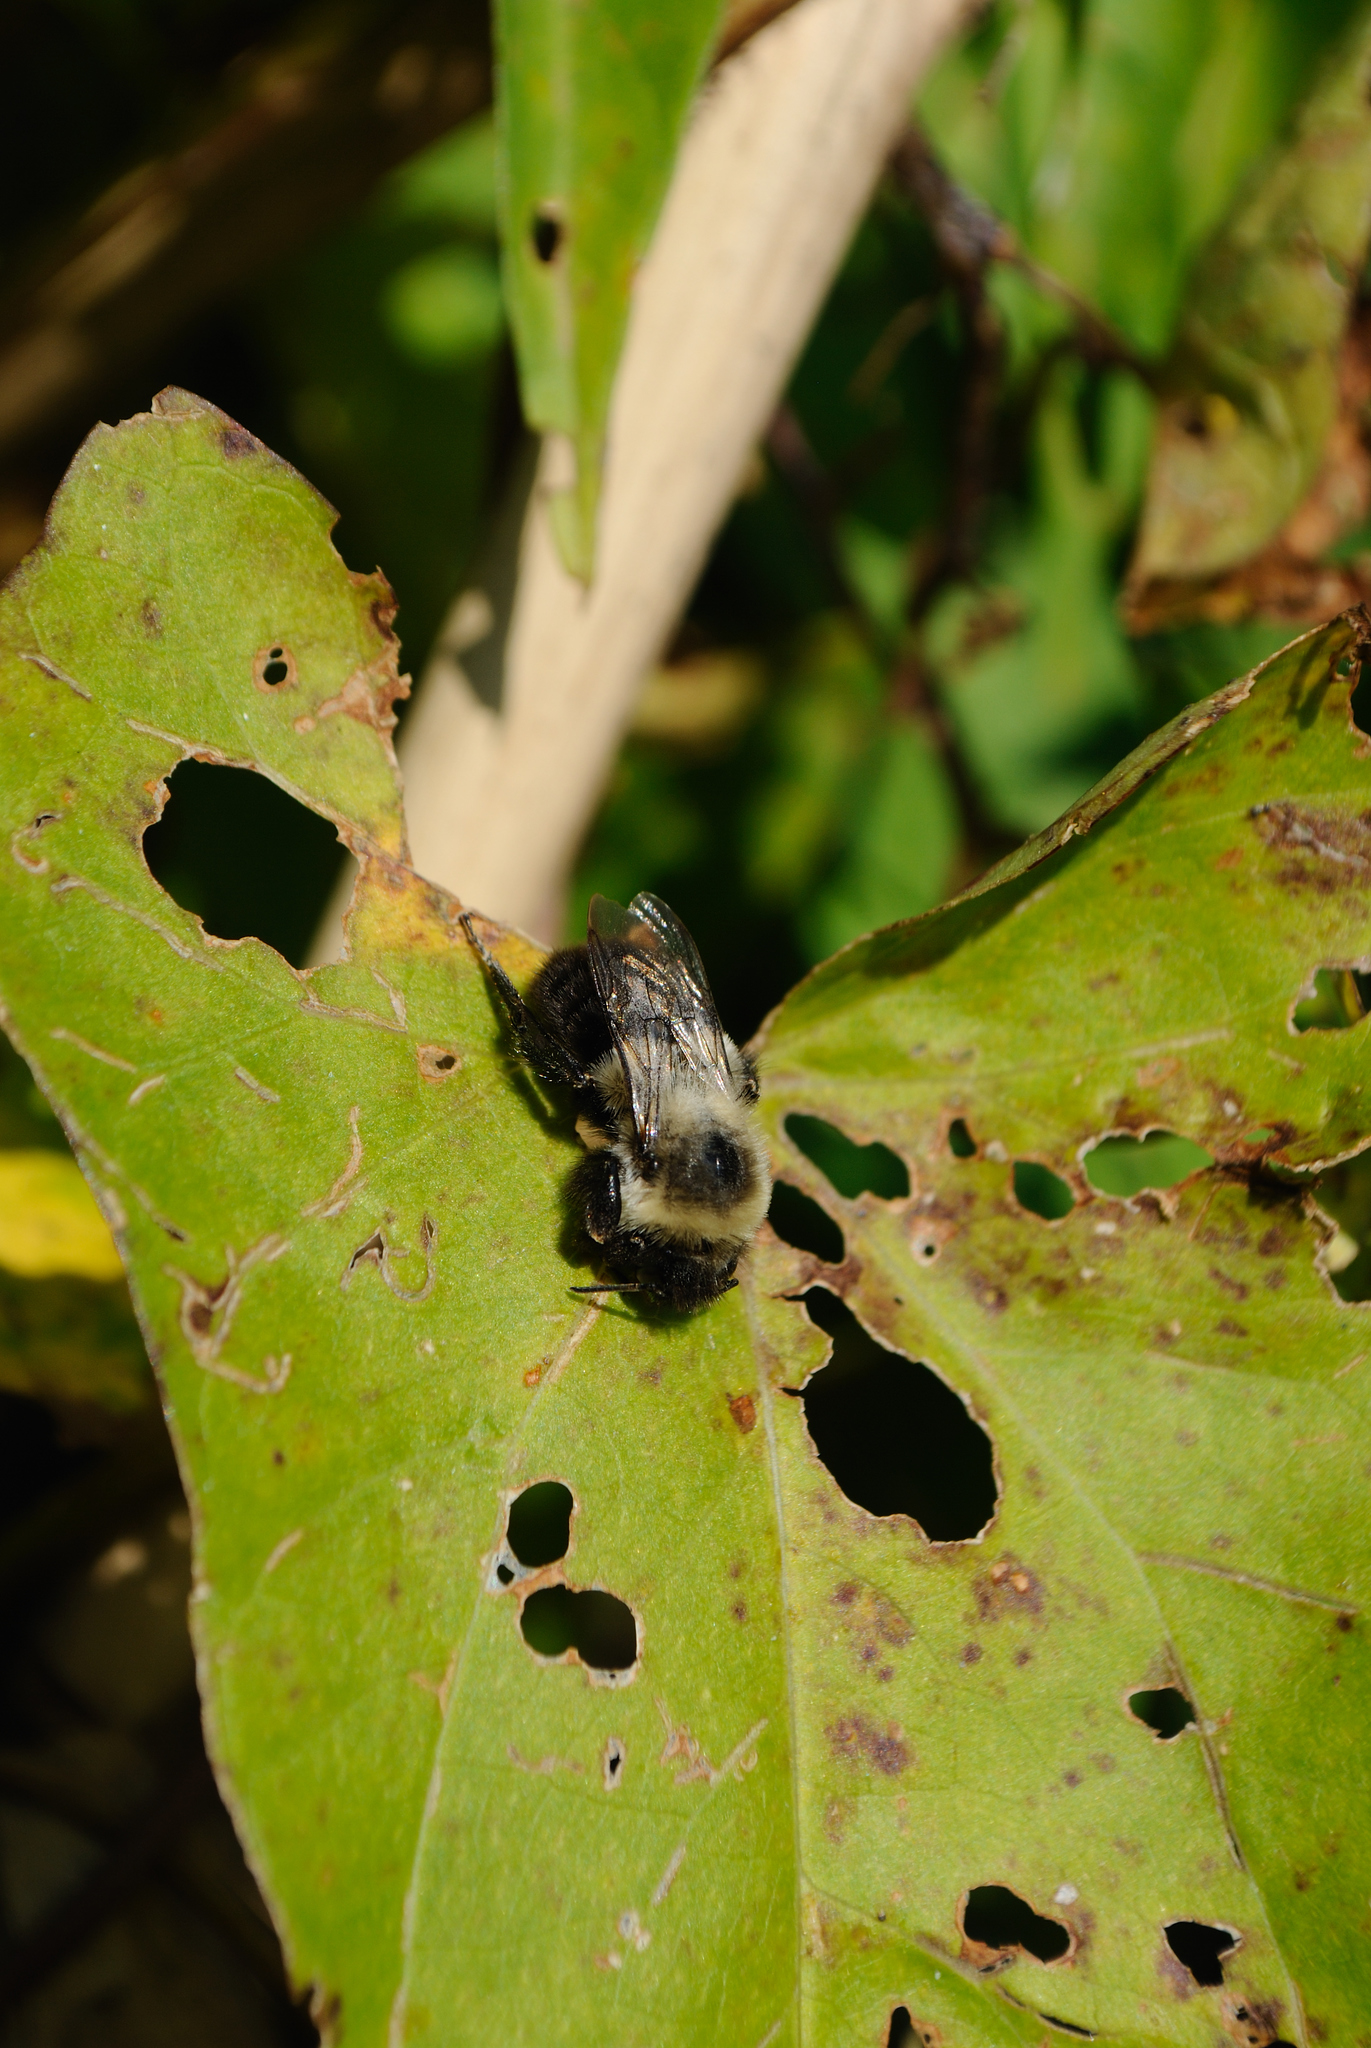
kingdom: Animalia
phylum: Arthropoda
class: Insecta
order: Hymenoptera
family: Apidae
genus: Bombus
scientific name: Bombus impatiens
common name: Common eastern bumble bee
